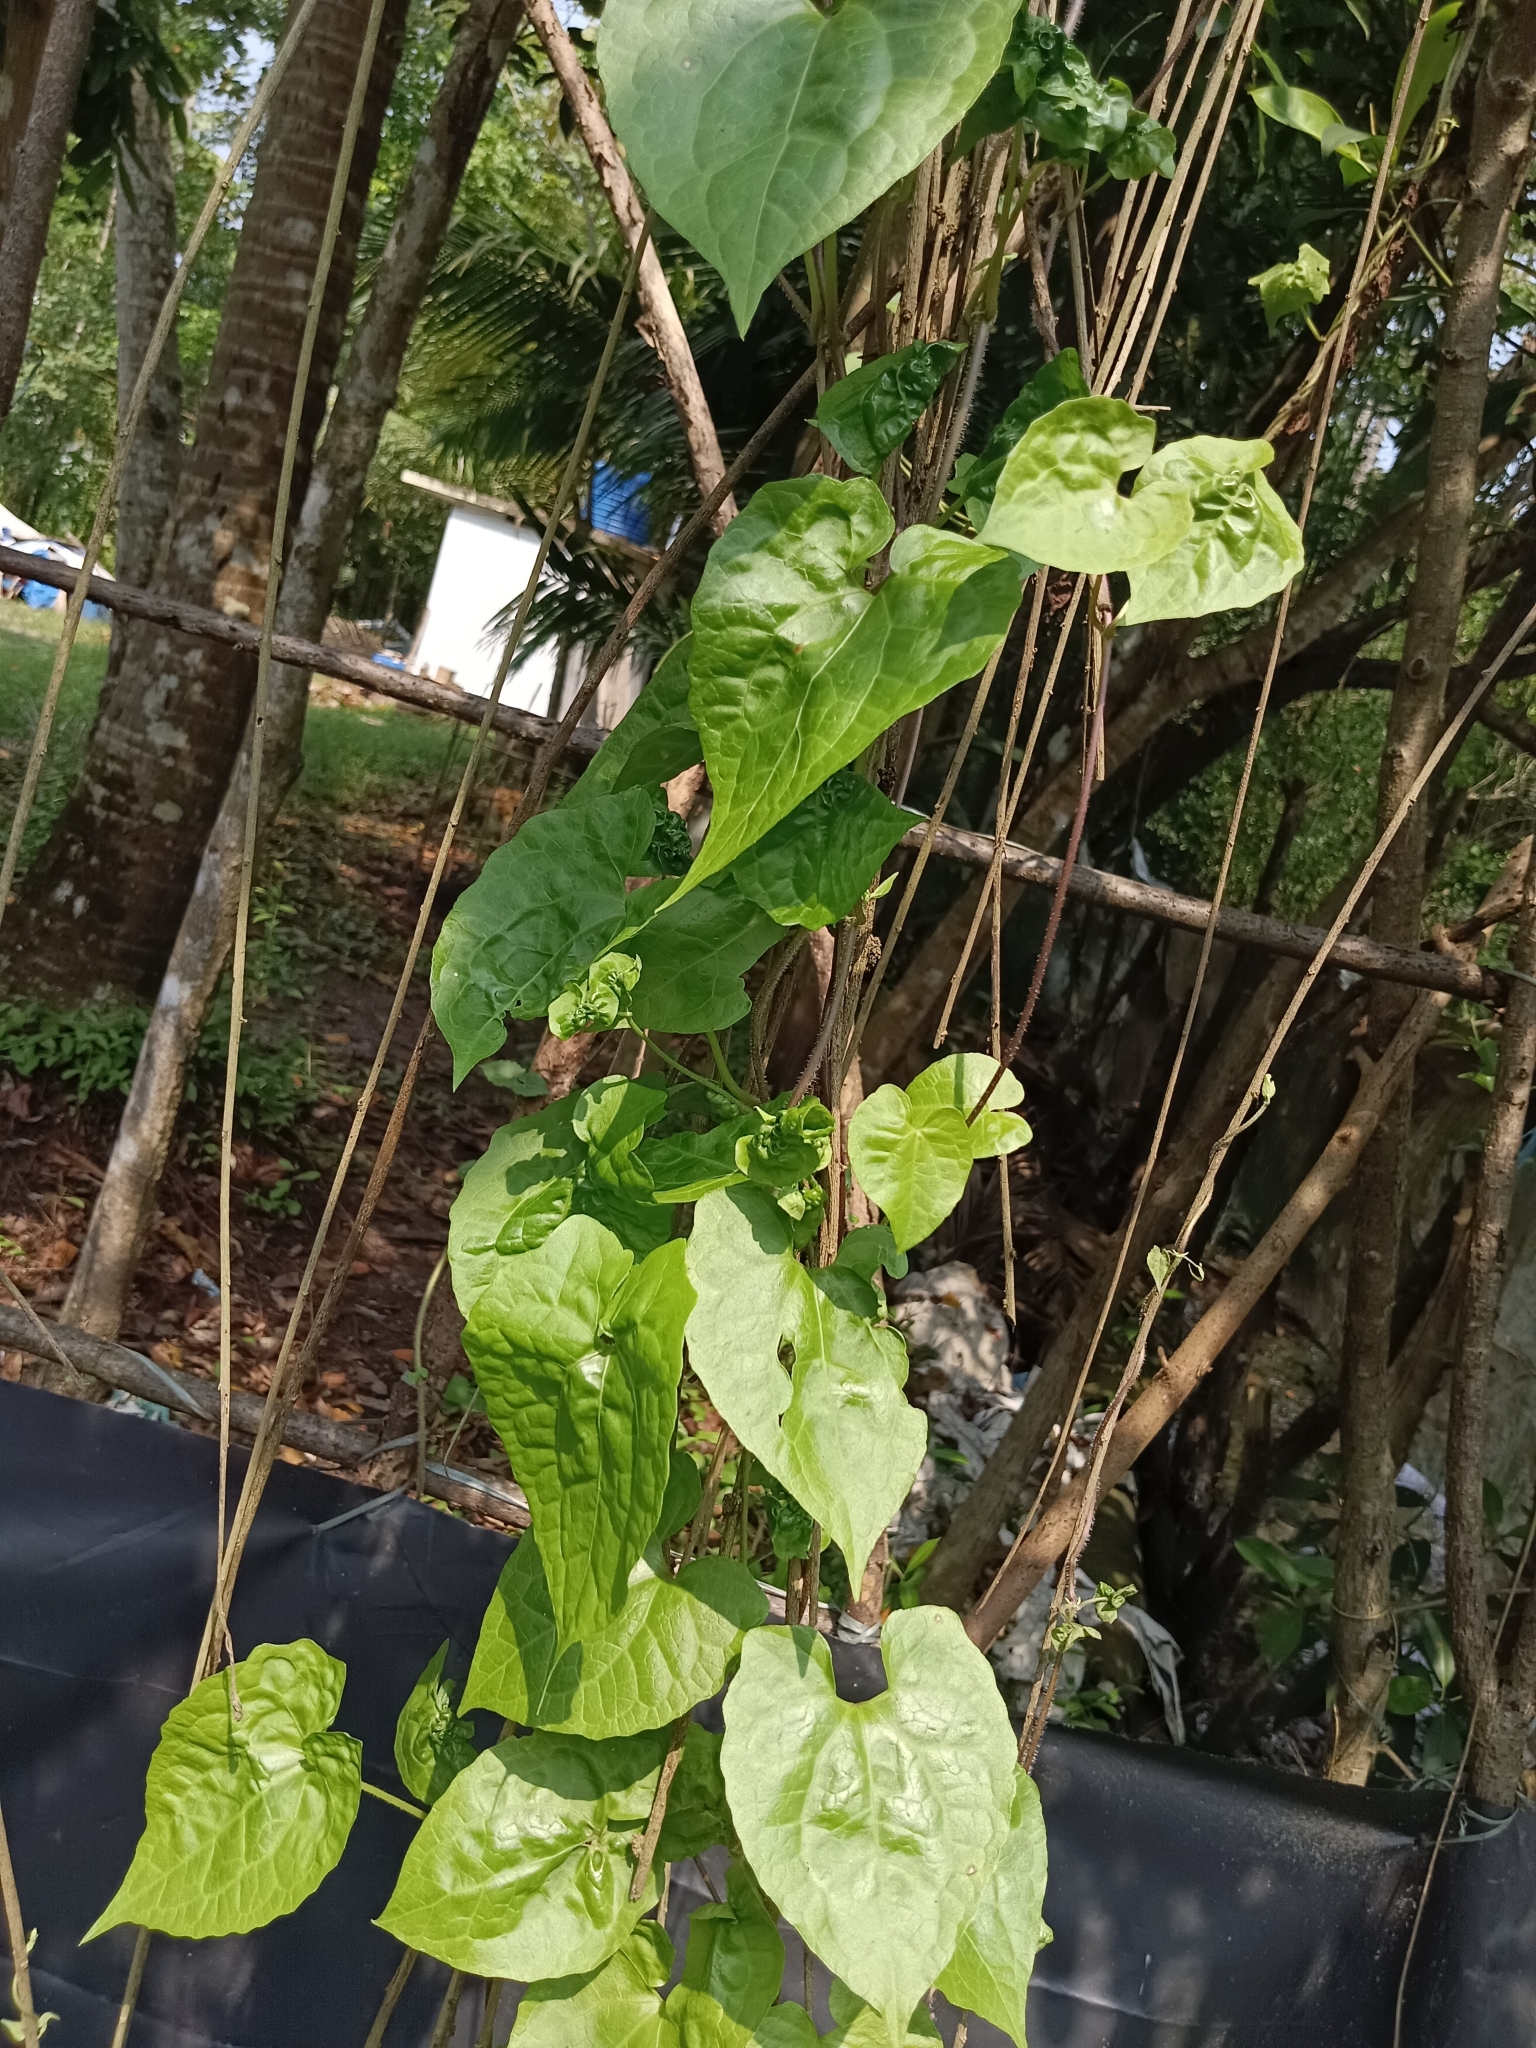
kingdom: Plantae
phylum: Tracheophyta
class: Magnoliopsida
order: Asterales
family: Asteraceae
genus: Mikania
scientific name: Mikania micrantha
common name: Mile-a-minute
